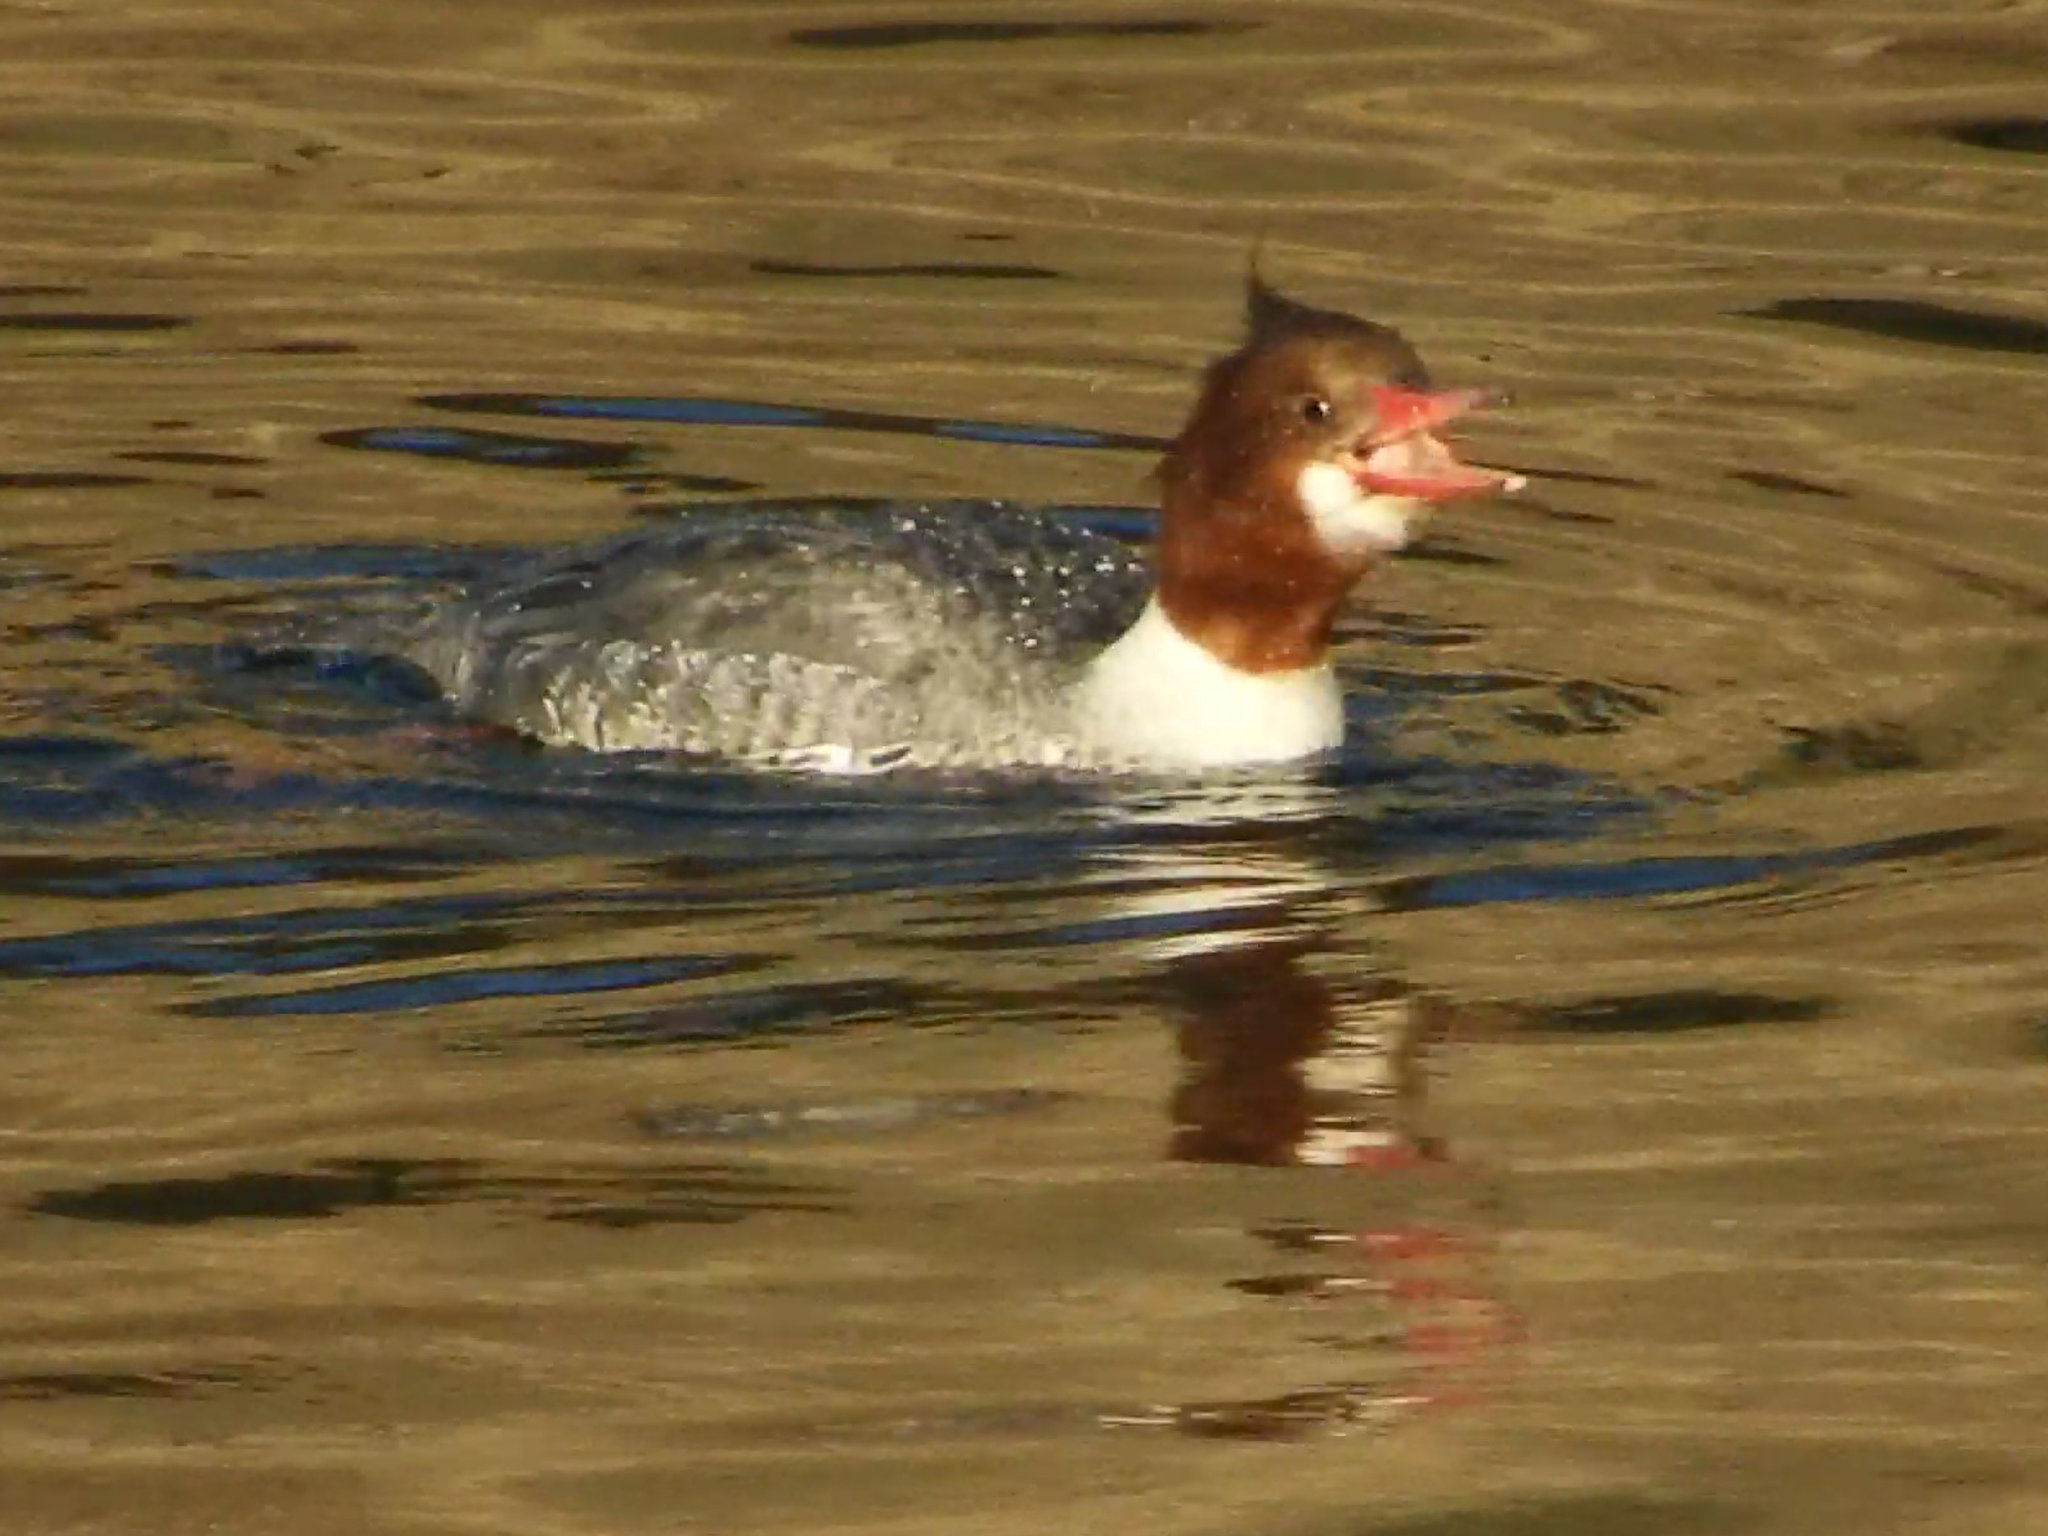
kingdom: Animalia
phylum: Chordata
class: Aves
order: Anseriformes
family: Anatidae
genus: Mergus
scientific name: Mergus merganser
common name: Common merganser
